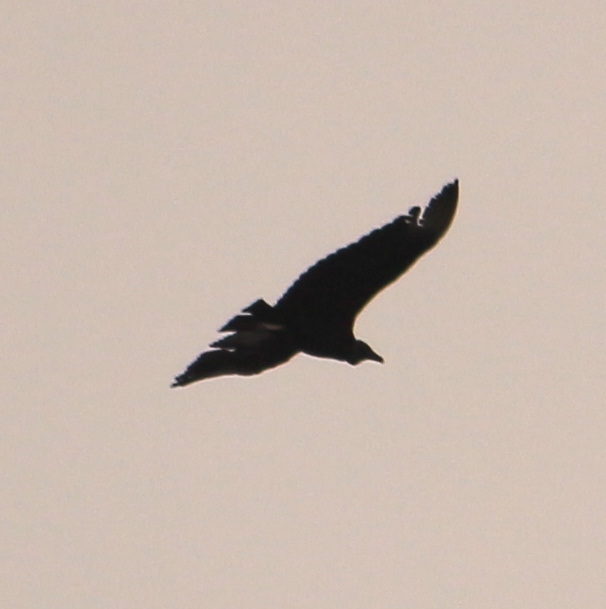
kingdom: Animalia
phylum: Chordata
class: Aves
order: Accipitriformes
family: Cathartidae
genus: Coragyps
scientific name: Coragyps atratus
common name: Black vulture
